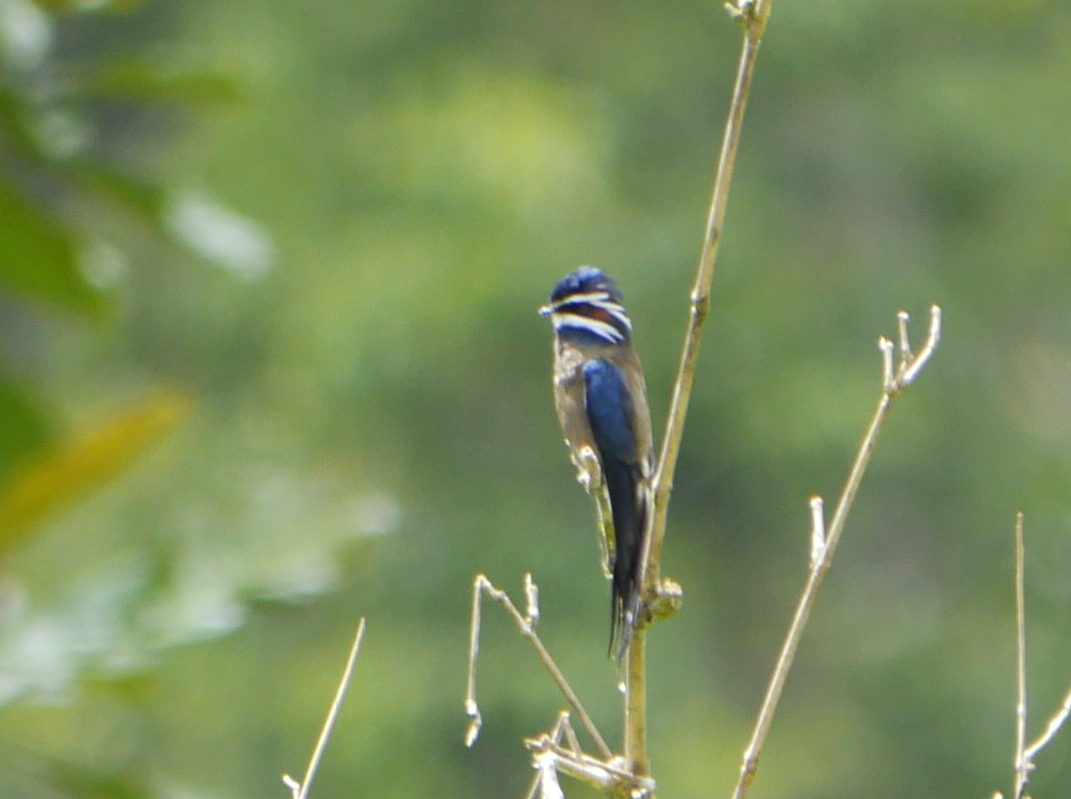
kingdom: Animalia
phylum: Chordata
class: Aves
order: Apodiformes
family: Hemiprocnidae
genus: Hemiprocne
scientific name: Hemiprocne comata
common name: Whiskered treeswift
